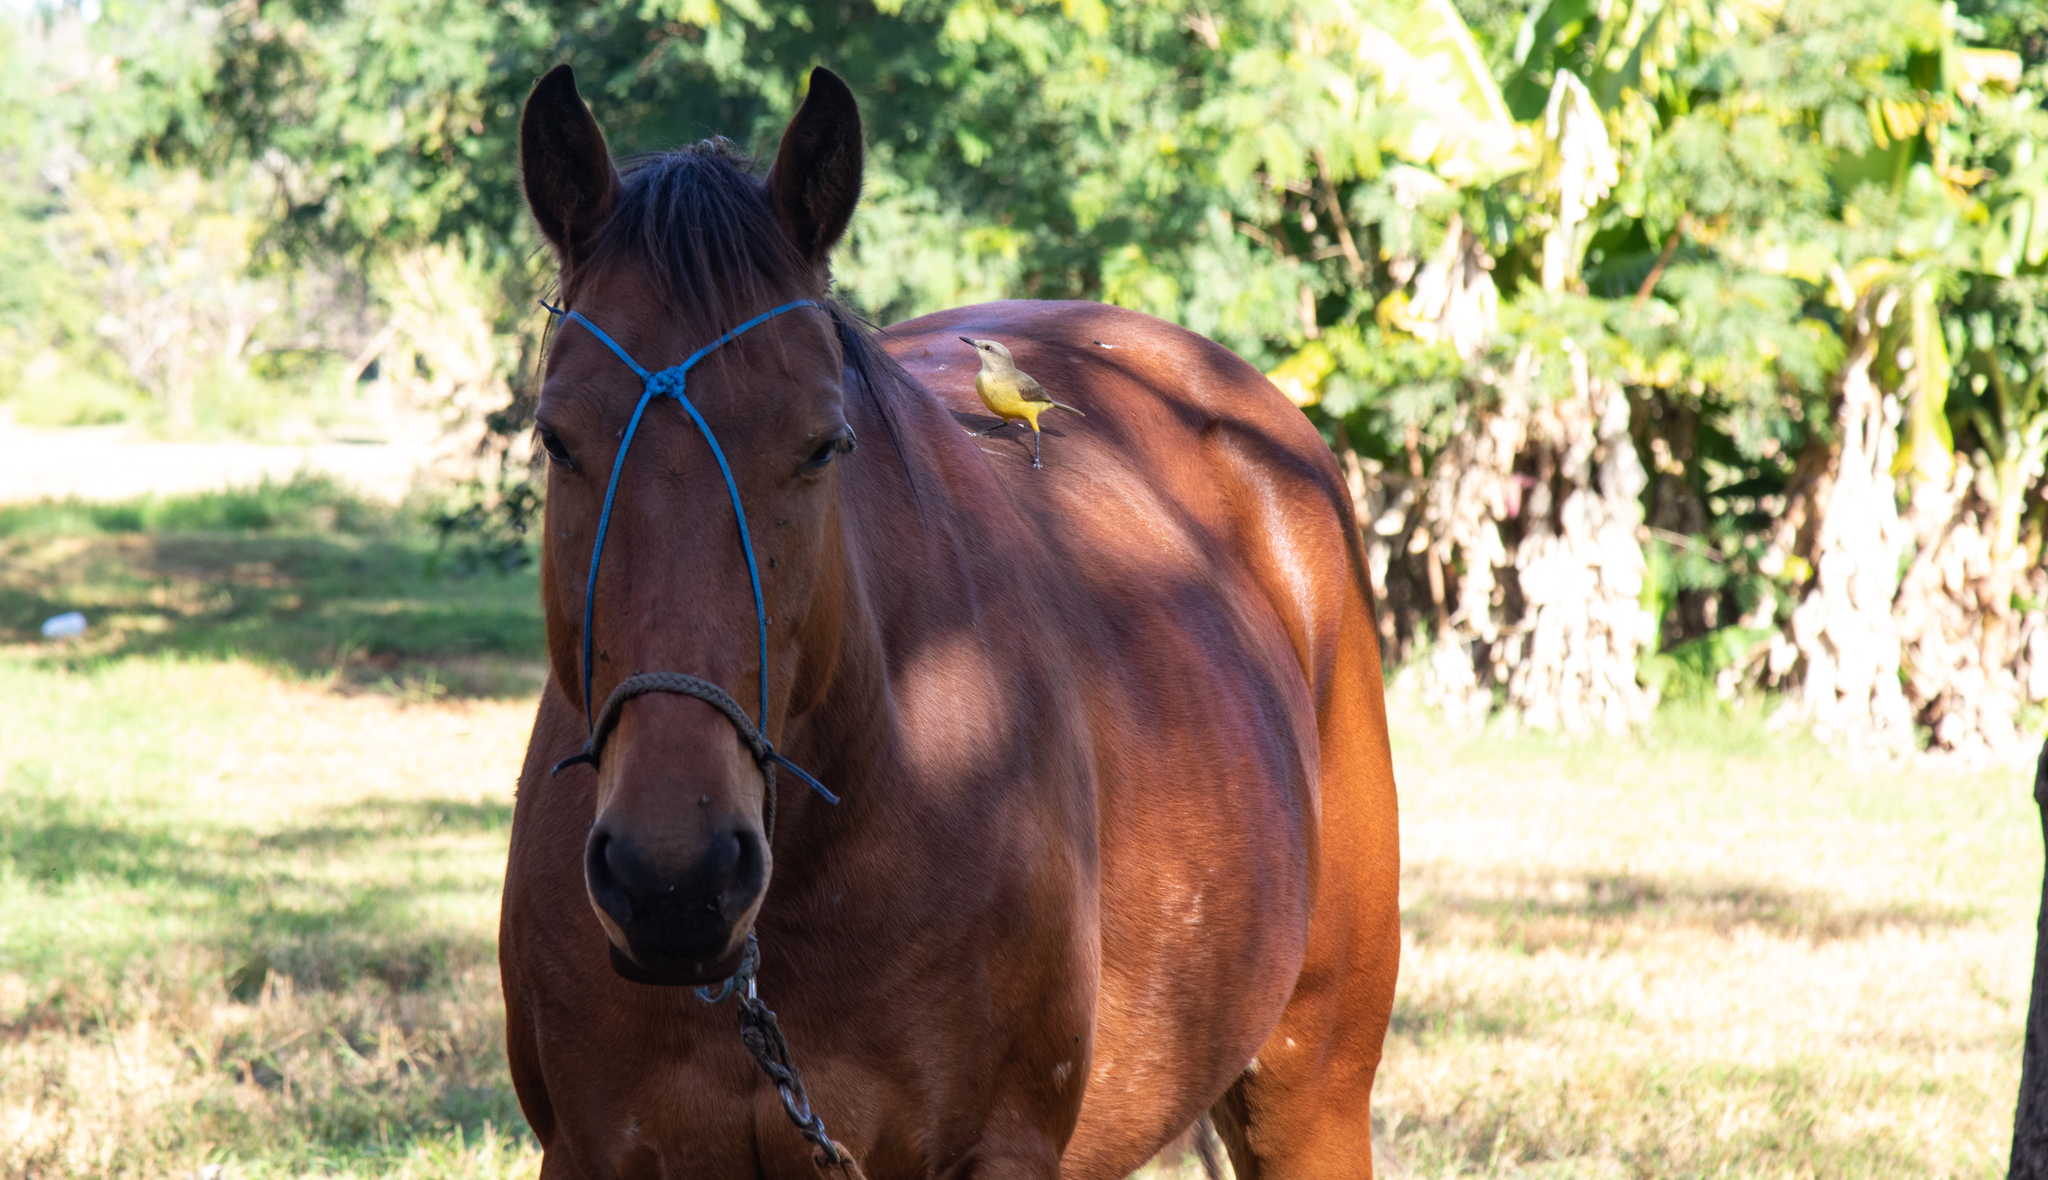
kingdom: Animalia
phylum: Chordata
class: Aves
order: Passeriformes
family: Tyrannidae
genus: Machetornis
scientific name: Machetornis rixosa
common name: Cattle tyrant
